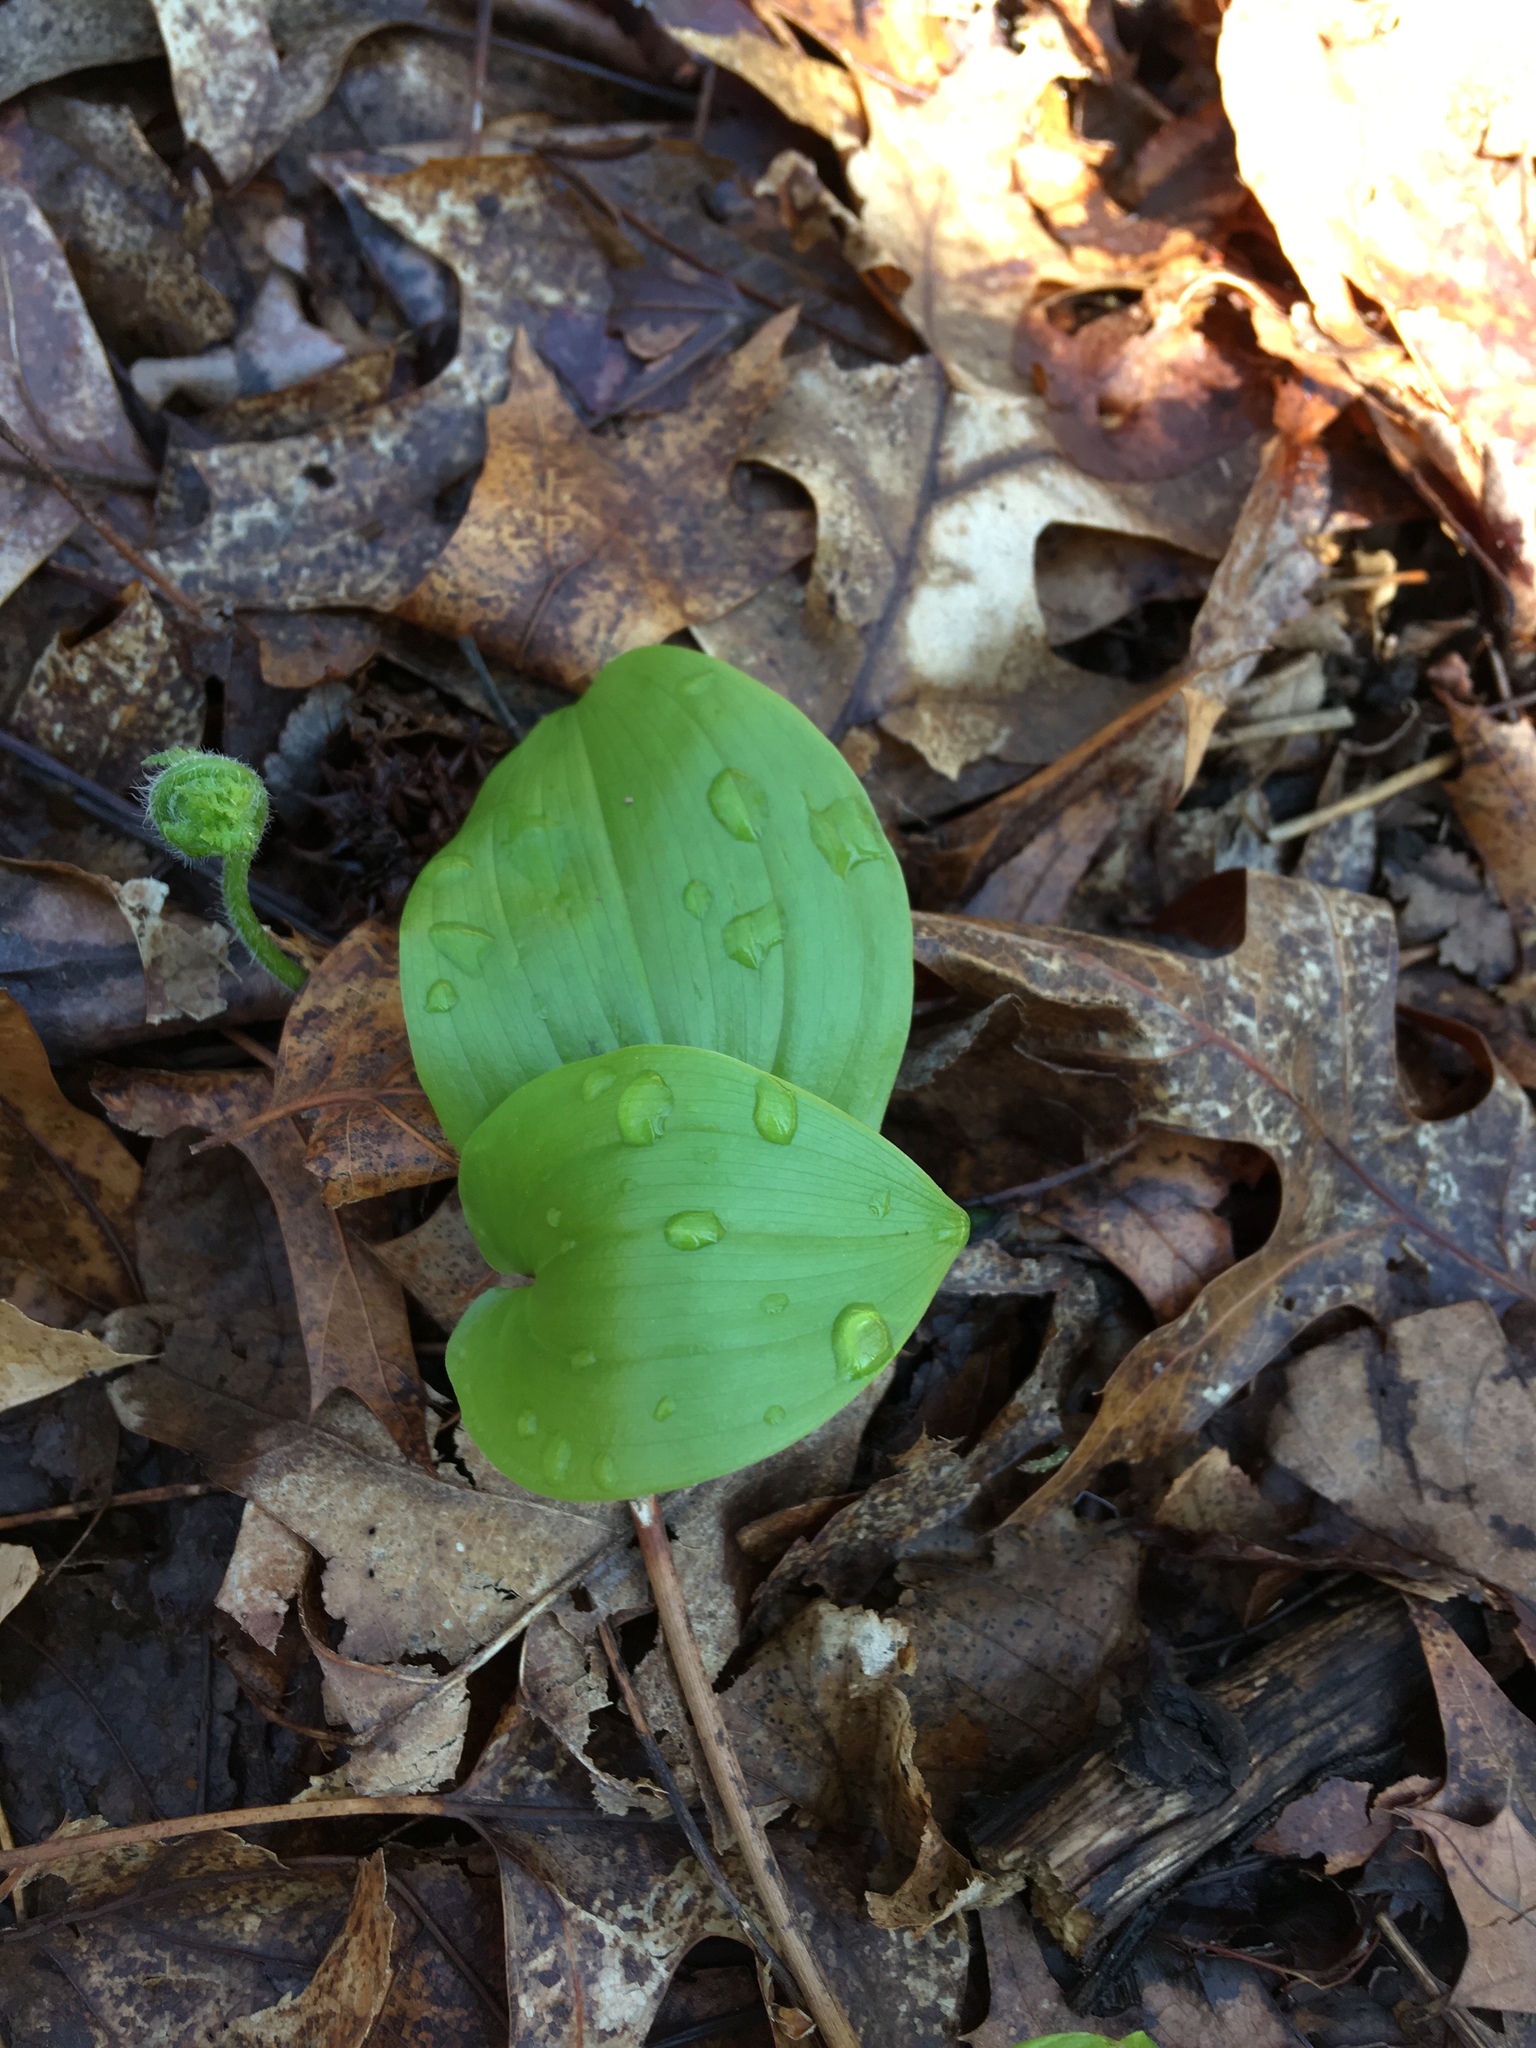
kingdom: Plantae
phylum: Tracheophyta
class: Liliopsida
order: Asparagales
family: Asparagaceae
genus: Maianthemum
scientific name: Maianthemum canadense
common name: False lily-of-the-valley
